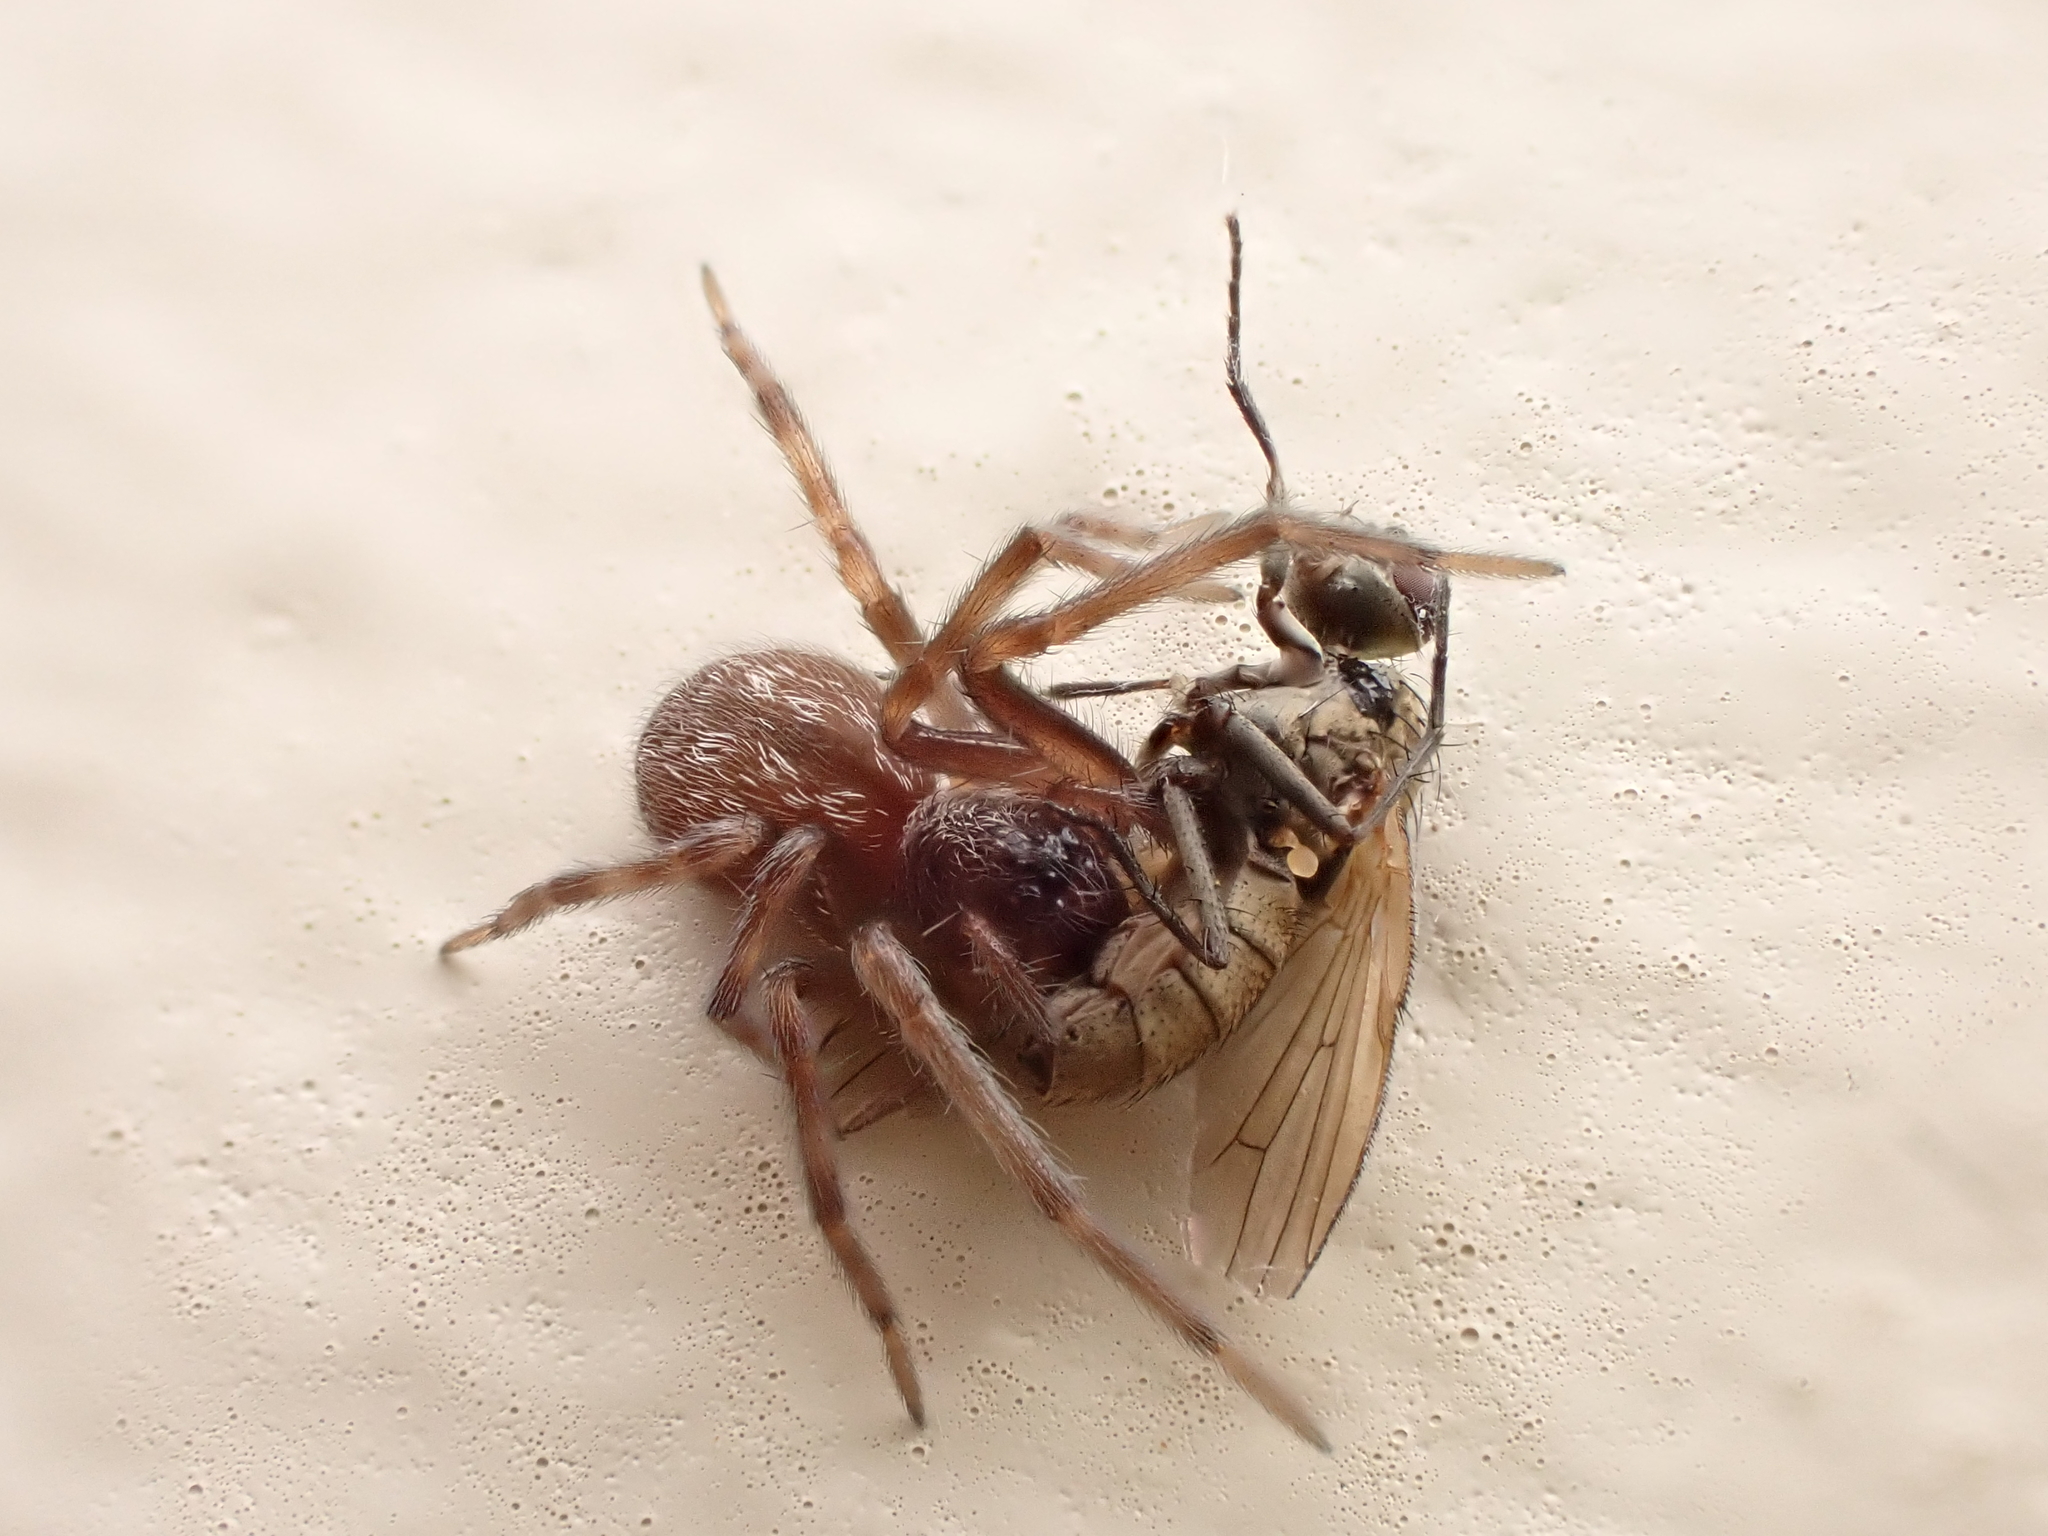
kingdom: Animalia
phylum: Arthropoda
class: Arachnida
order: Araneae
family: Desidae
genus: Badumna
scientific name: Badumna longinqua
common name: Gray house spider
